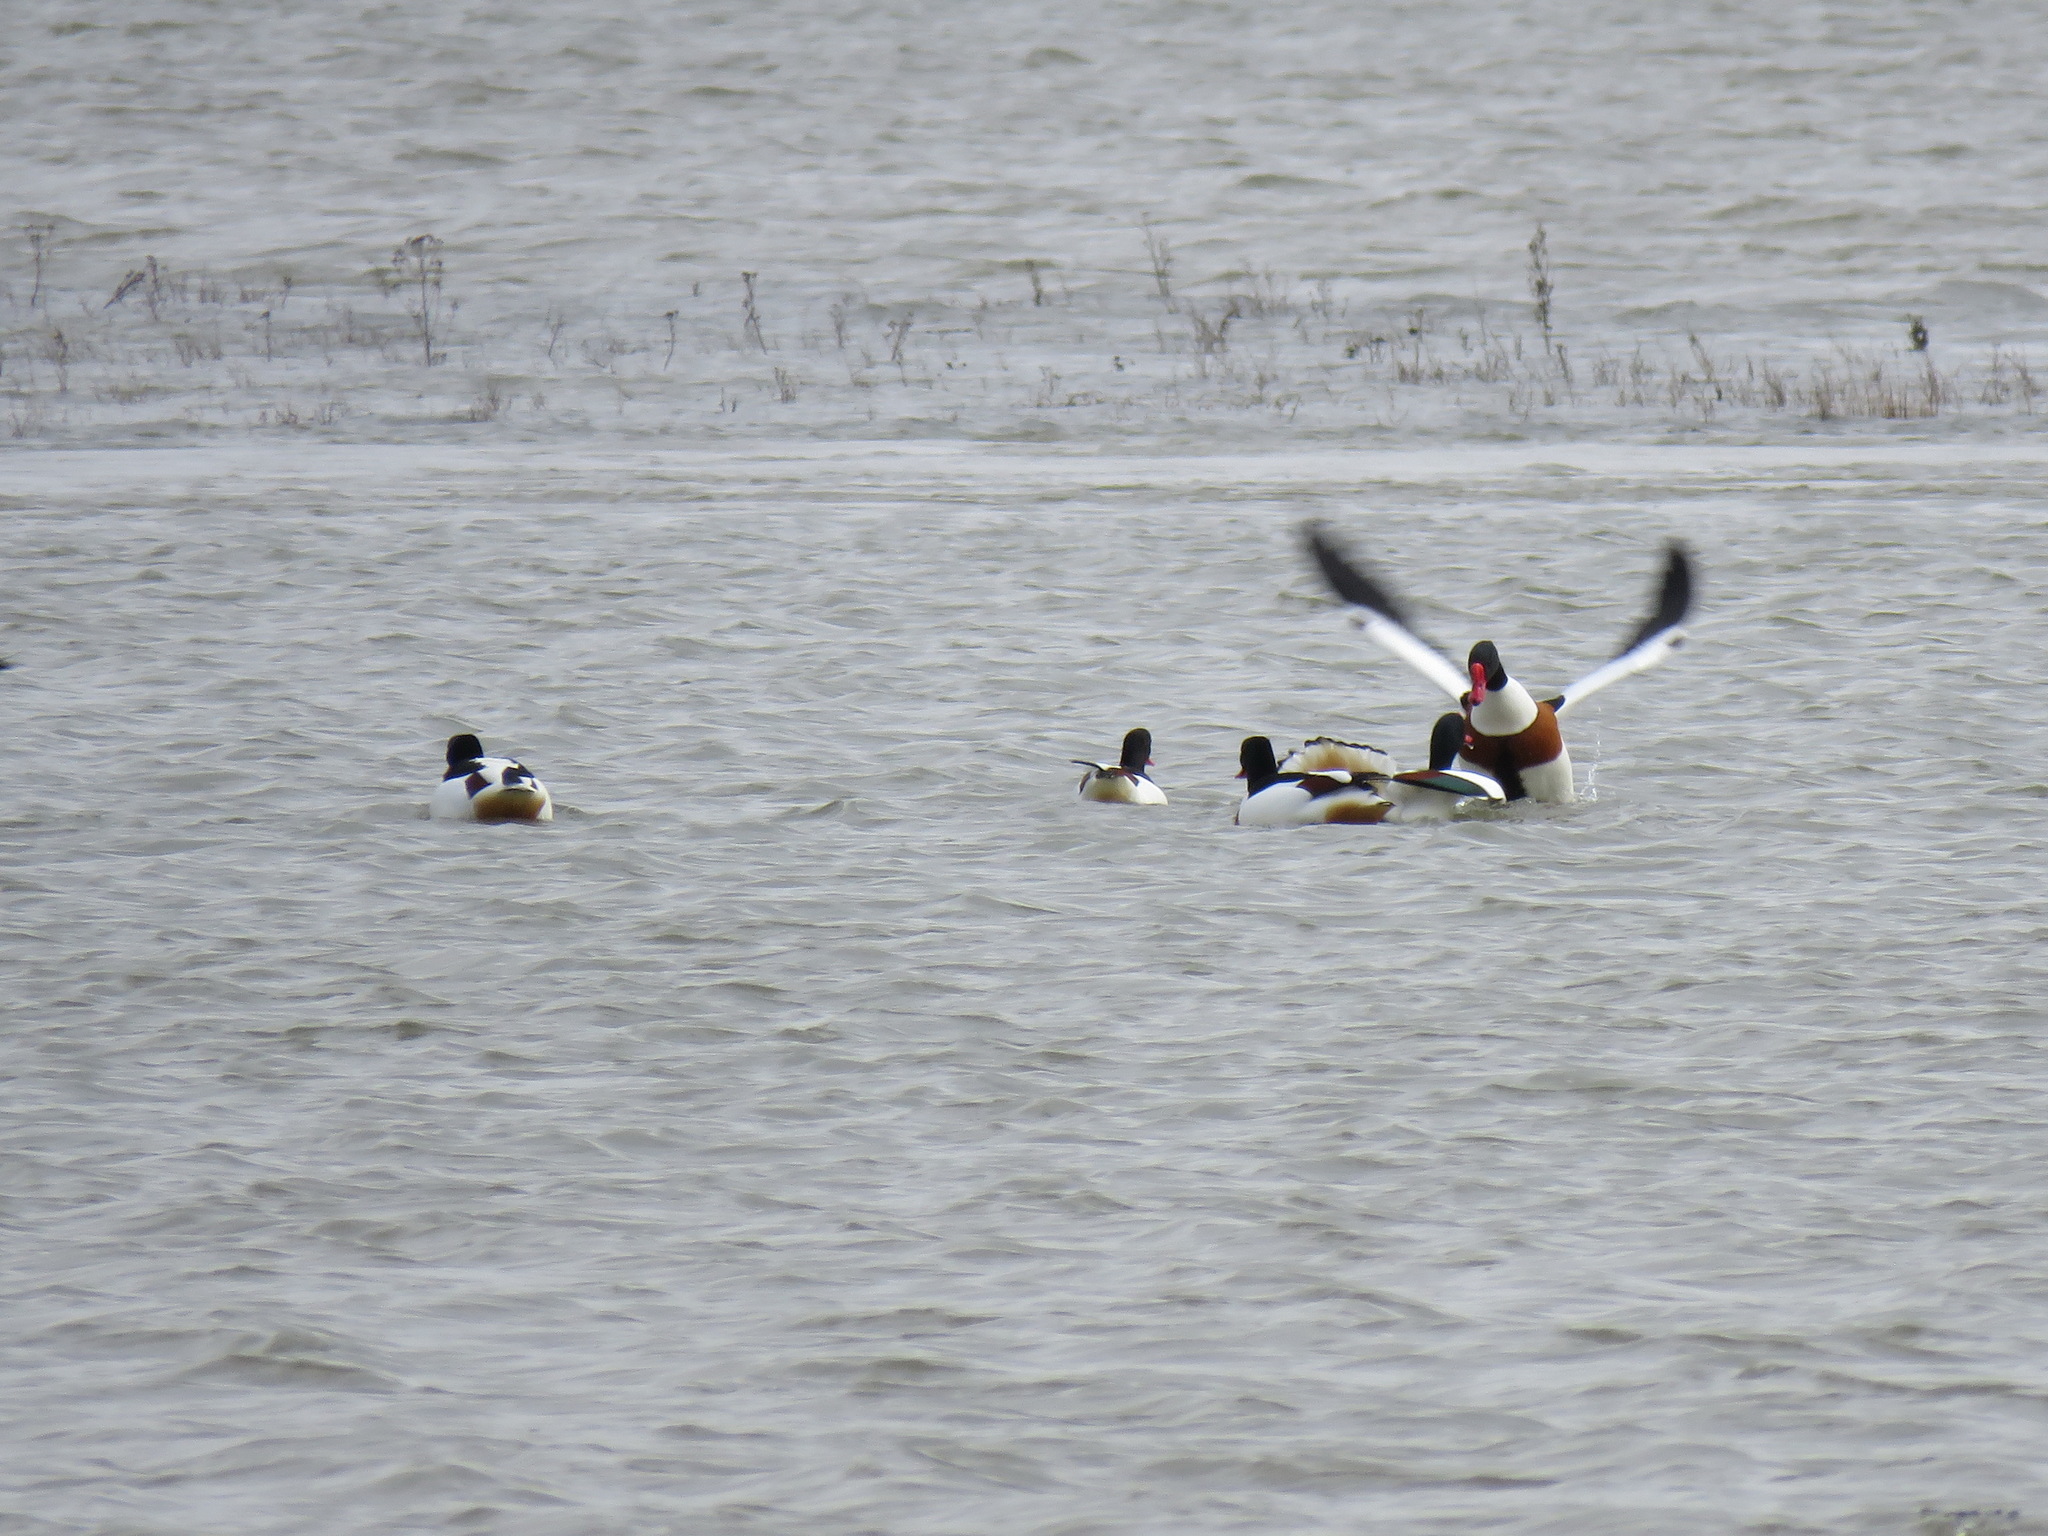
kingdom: Animalia
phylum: Chordata
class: Aves
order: Anseriformes
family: Anatidae
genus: Tadorna
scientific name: Tadorna tadorna
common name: Common shelduck
